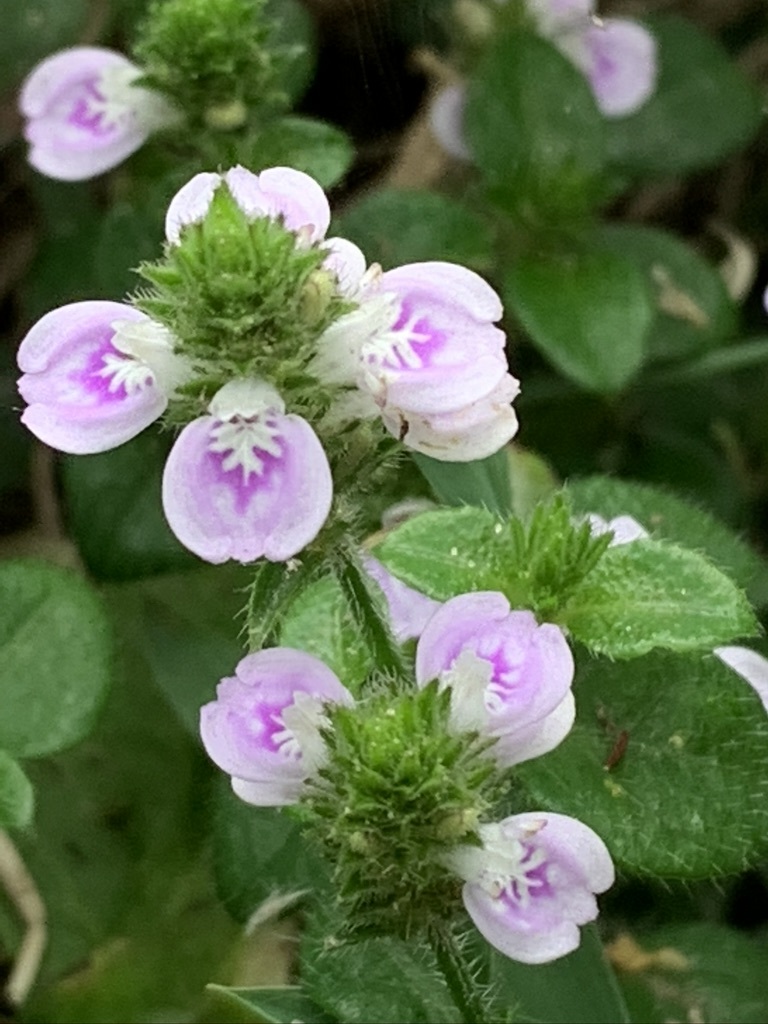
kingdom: Plantae
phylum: Tracheophyta
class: Magnoliopsida
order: Lamiales
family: Acanthaceae
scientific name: Acanthaceae
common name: Acanthaceae
